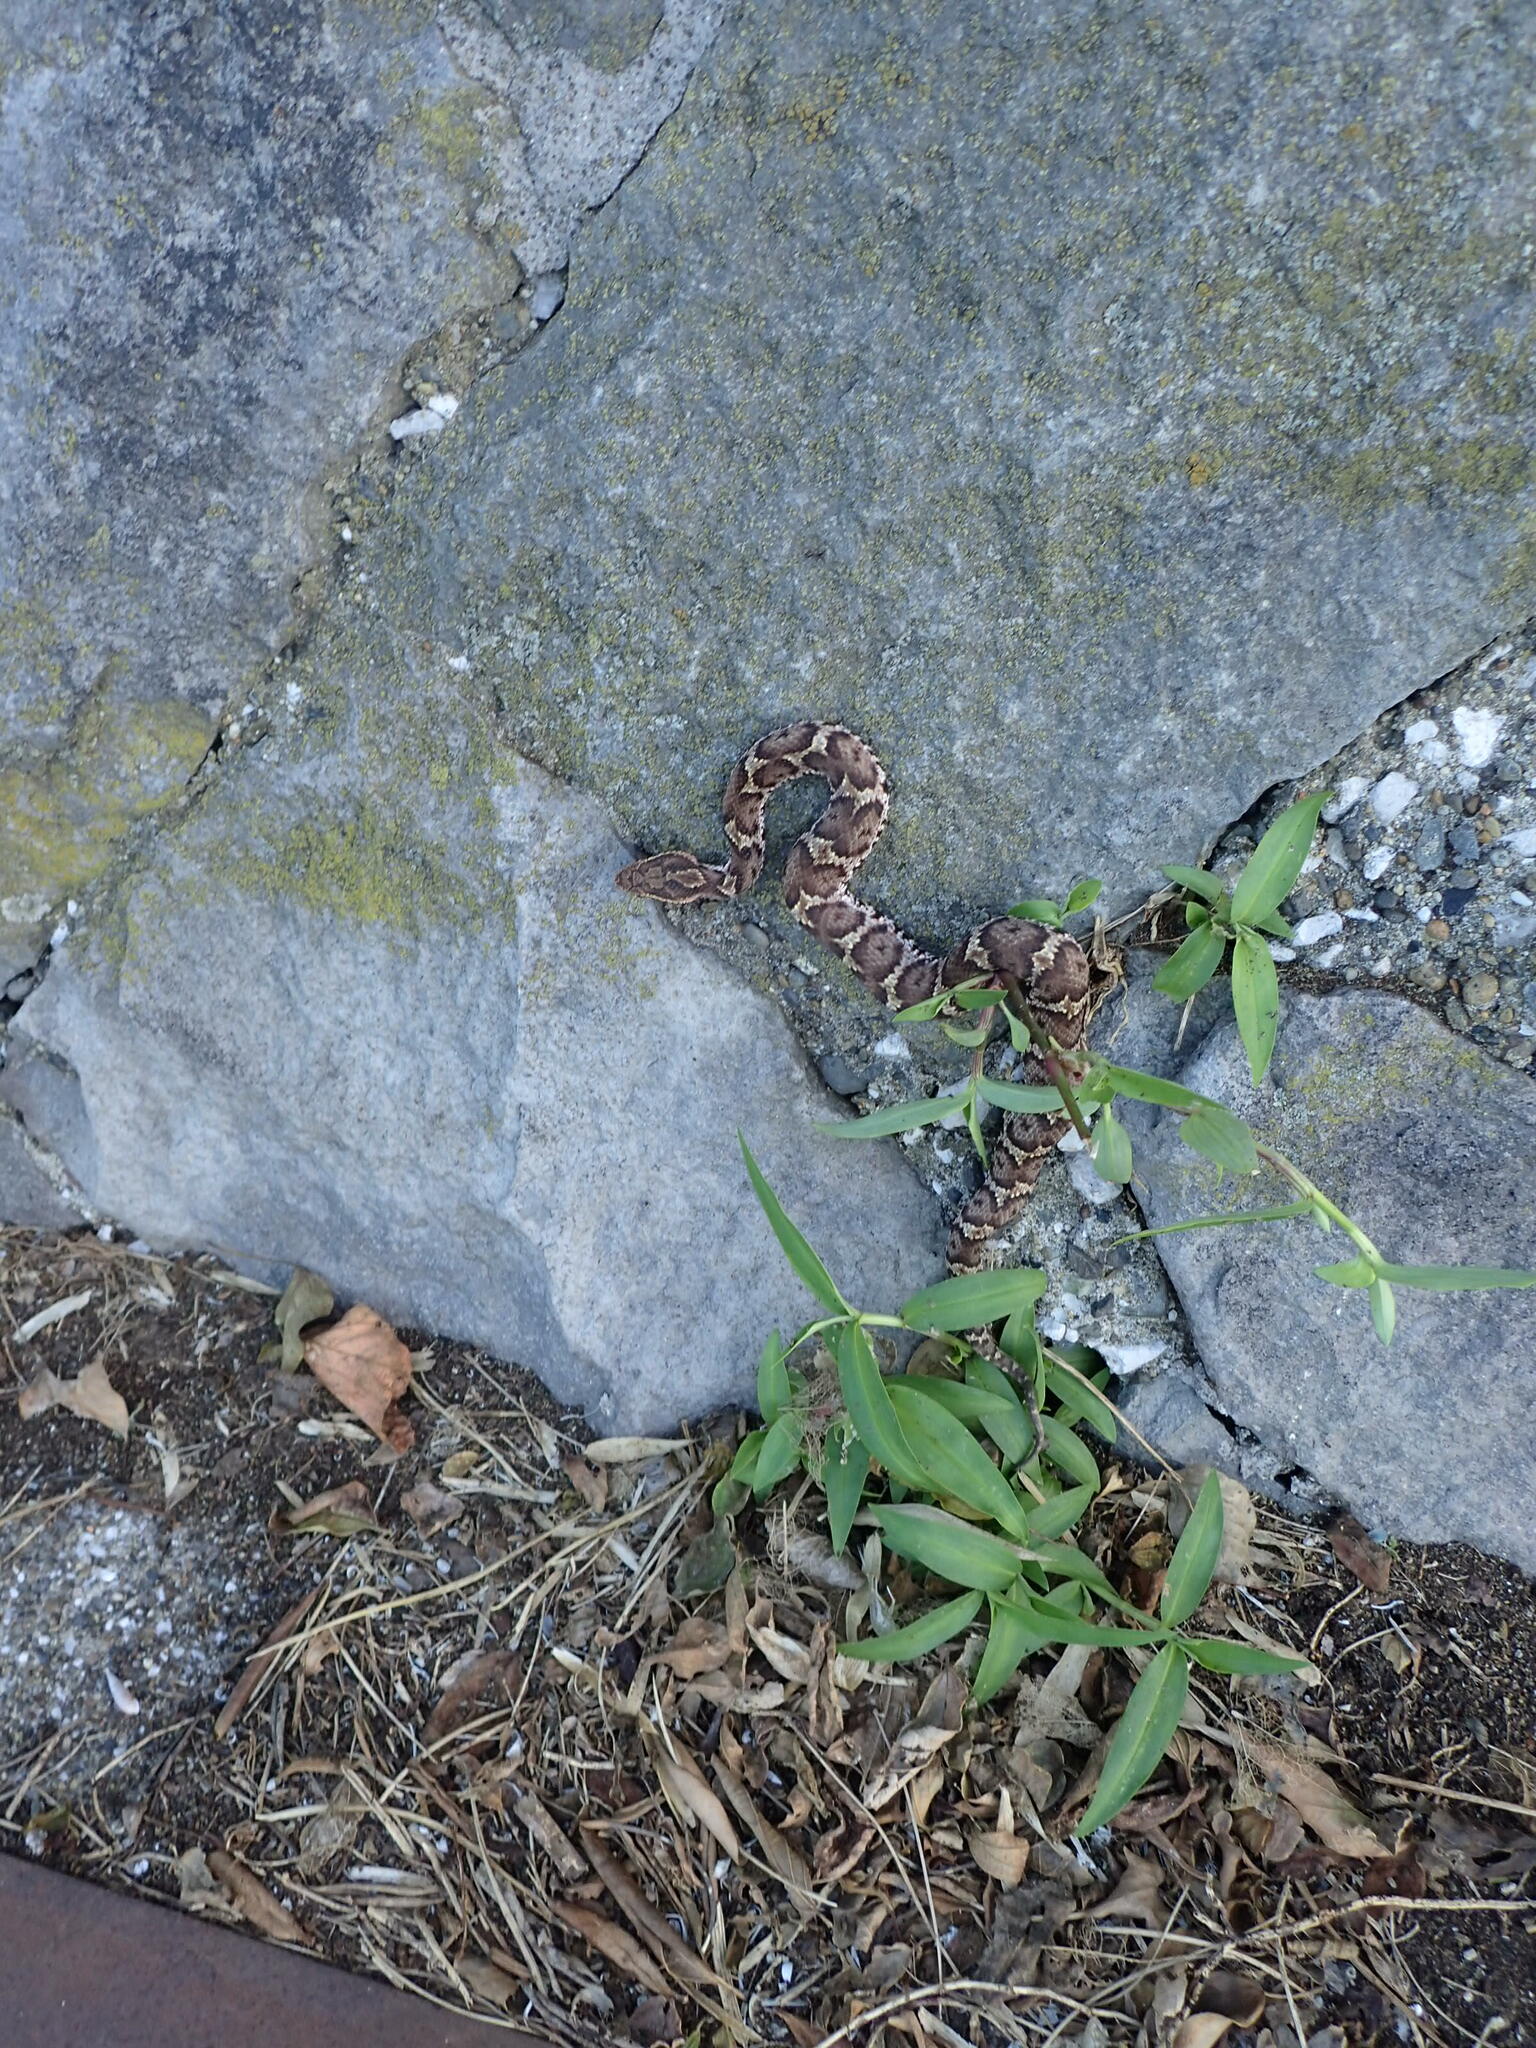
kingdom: Animalia
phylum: Chordata
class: Squamata
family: Viperidae
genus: Gloydius
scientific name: Gloydius blomhoffii
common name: Mamushi
